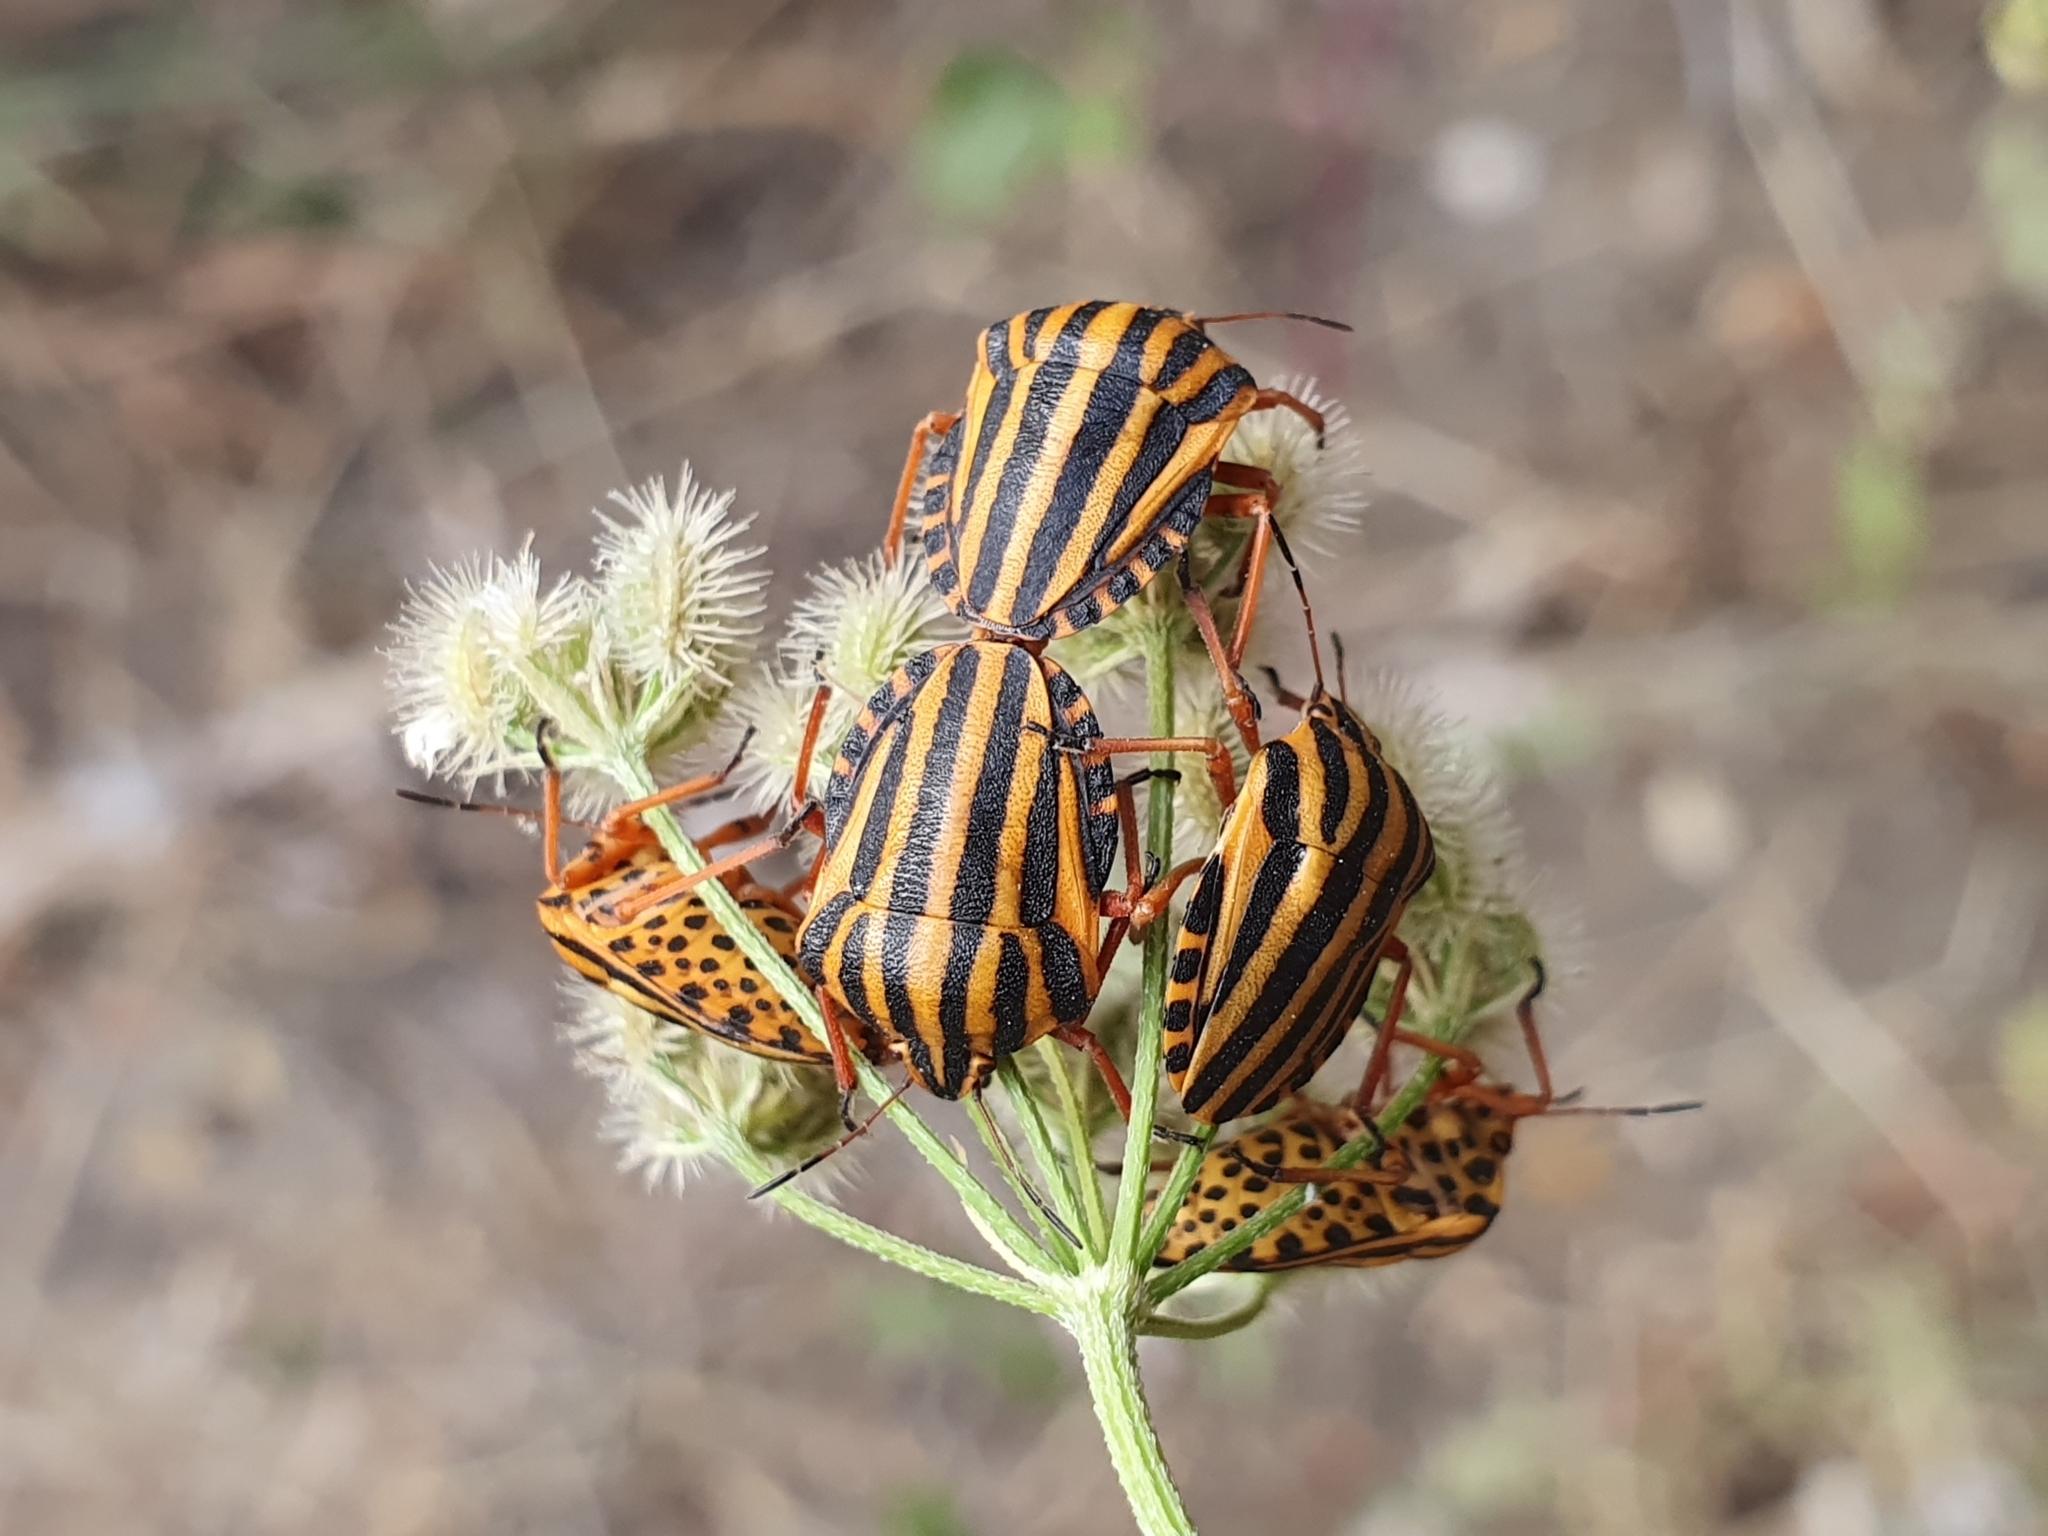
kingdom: Animalia
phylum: Arthropoda
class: Insecta
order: Hemiptera
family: Pentatomidae
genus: Graphosoma
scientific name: Graphosoma lineatum
